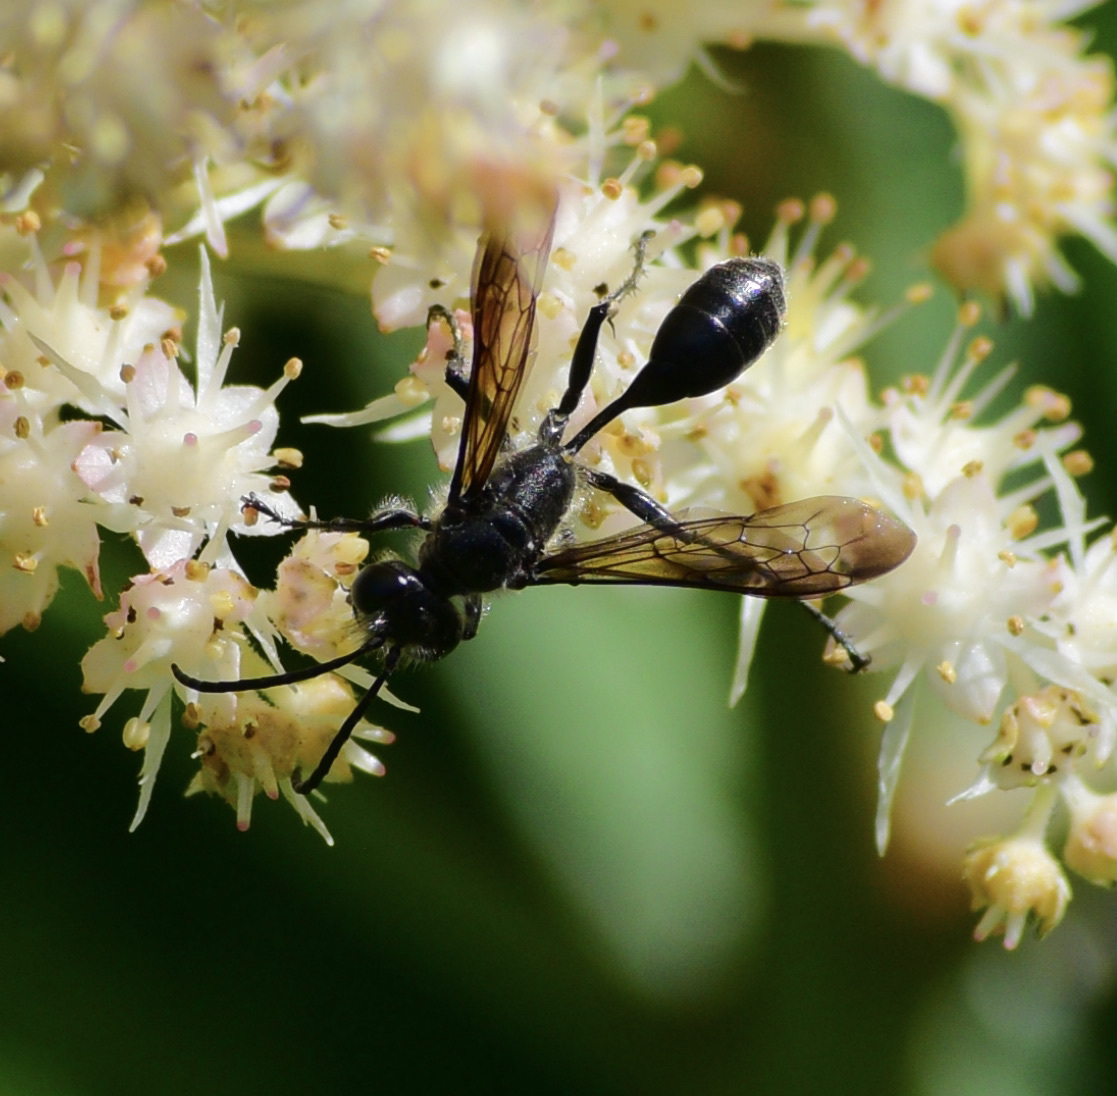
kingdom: Animalia
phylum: Arthropoda
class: Insecta
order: Hymenoptera
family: Sphecidae
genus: Isodontia
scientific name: Isodontia mexicana
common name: Mud dauber
